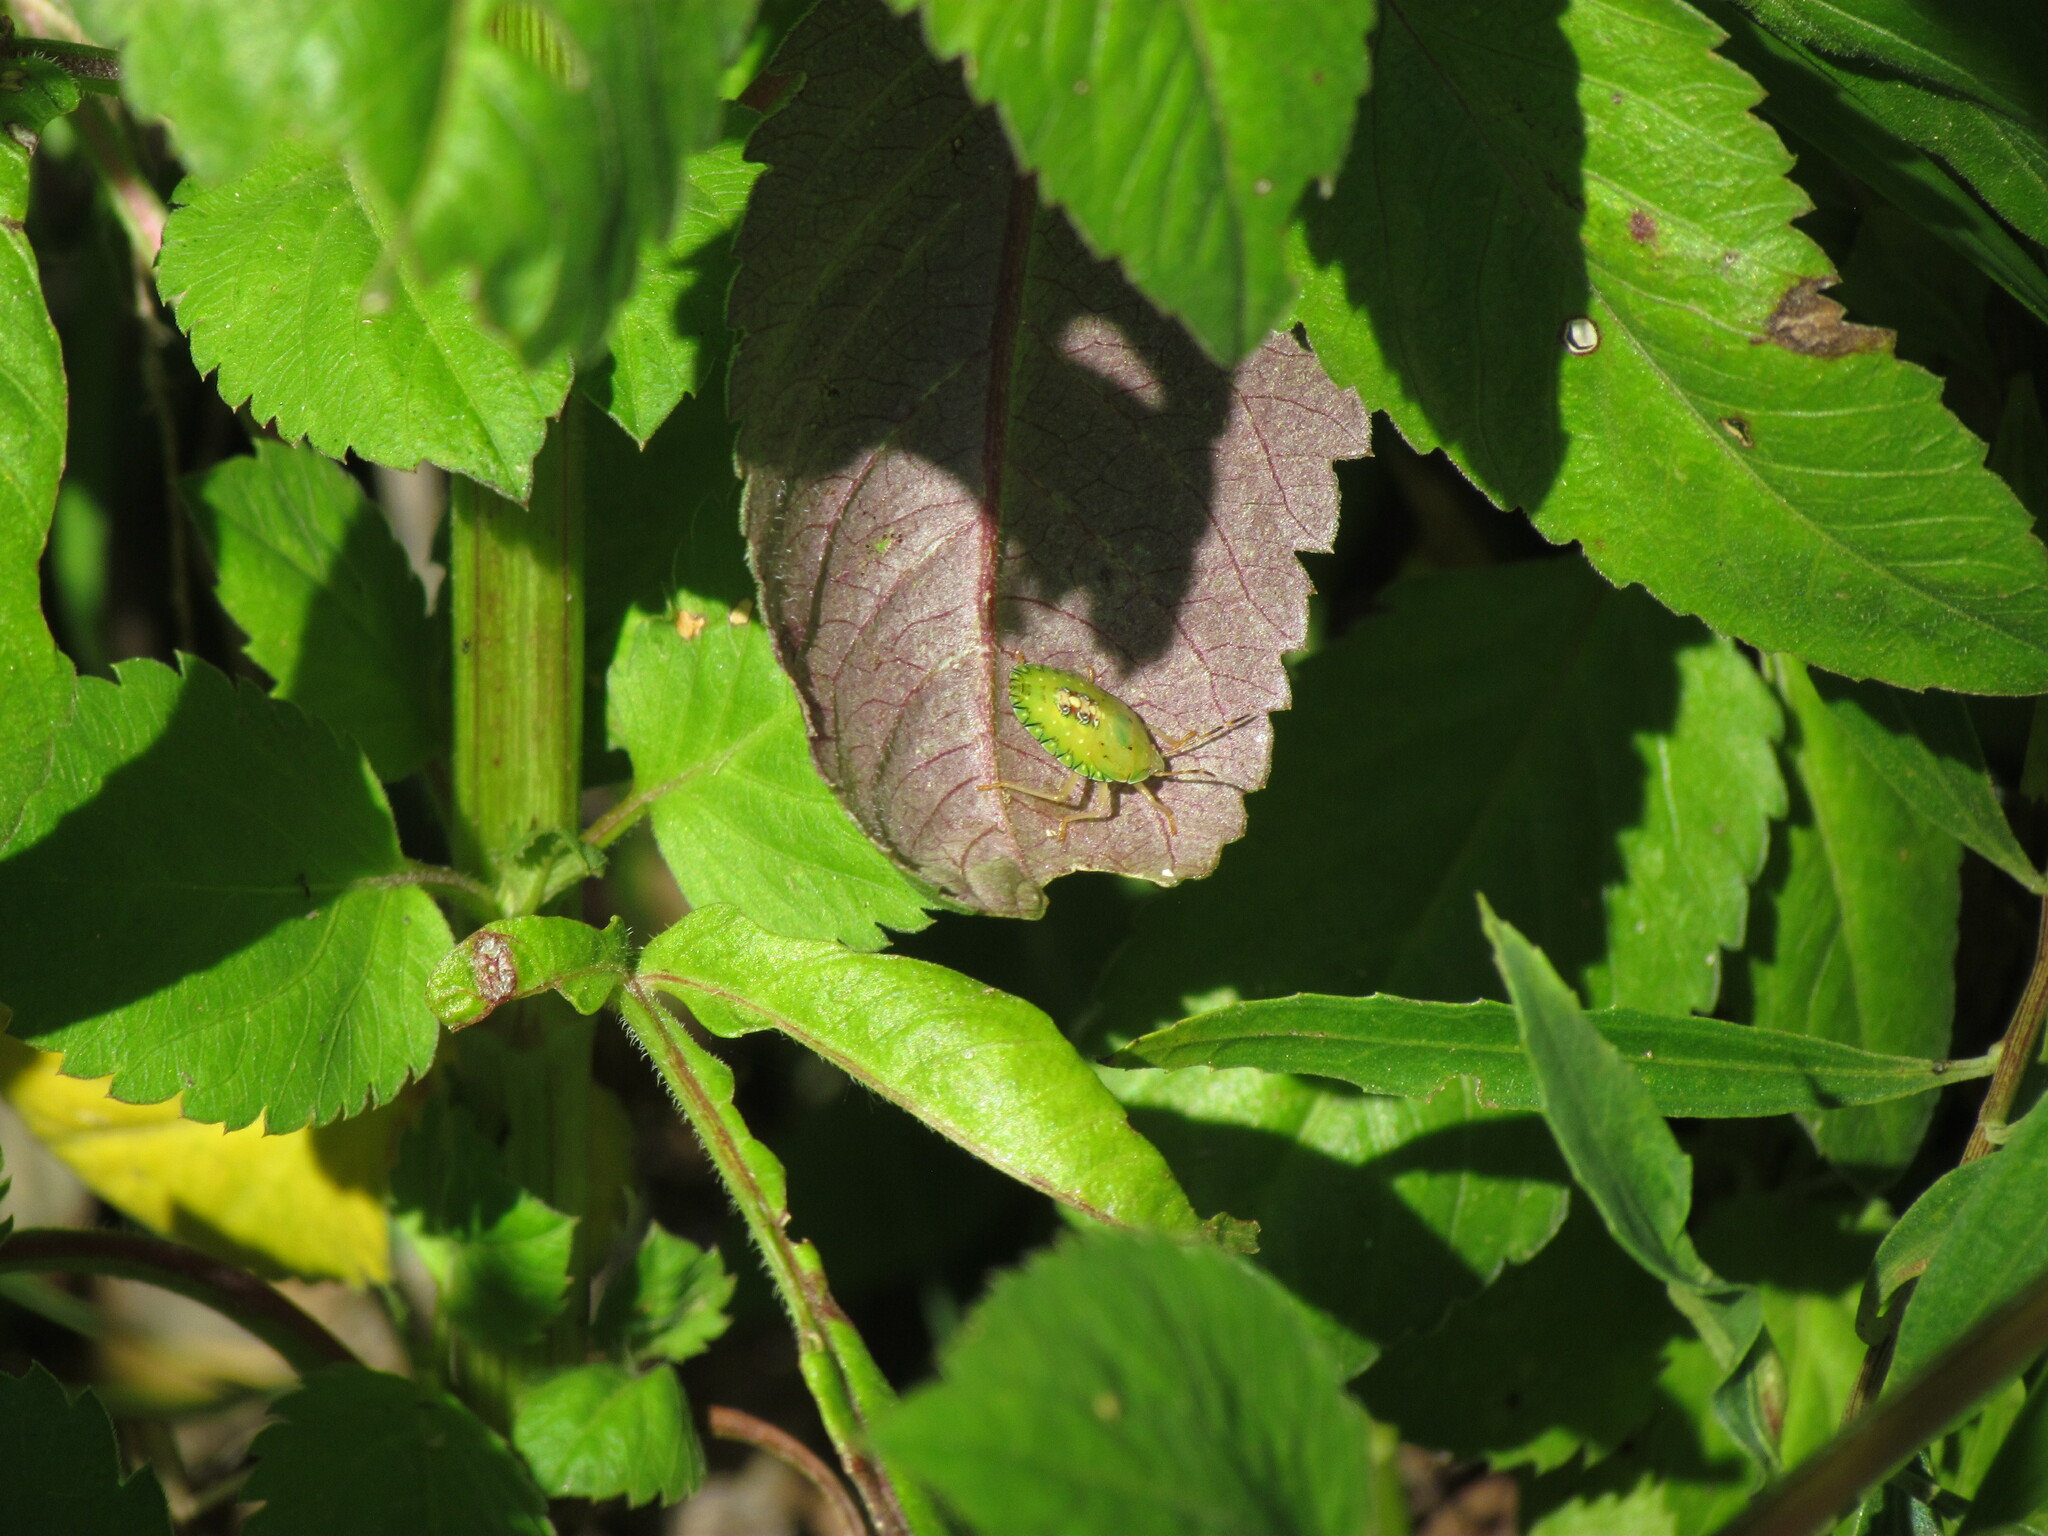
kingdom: Animalia
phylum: Arthropoda
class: Insecta
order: Hemiptera
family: Pentatomidae
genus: Edessa
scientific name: Edessa meditabunda
